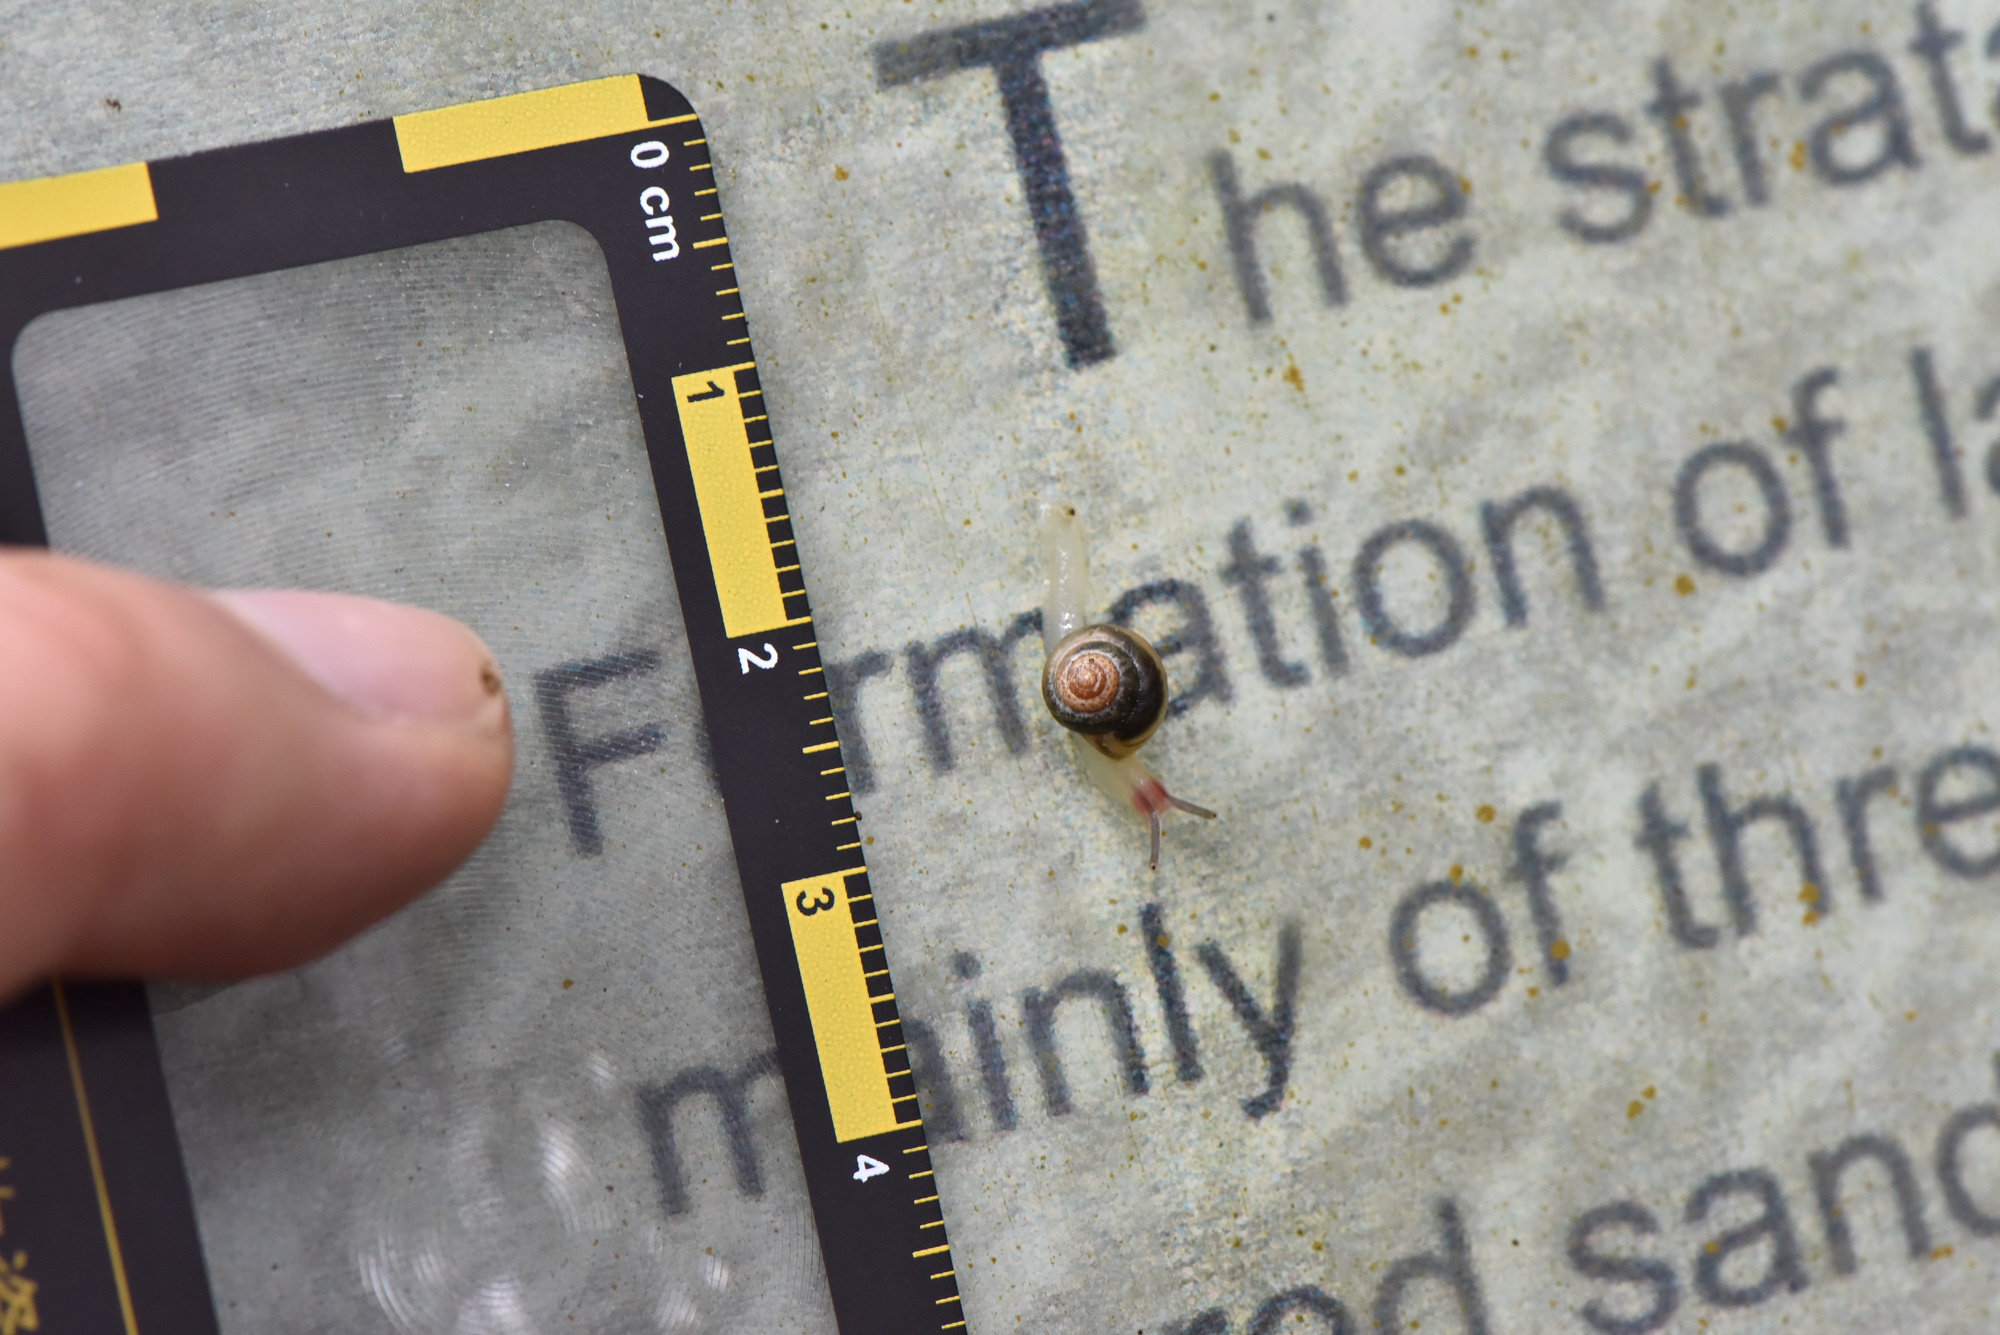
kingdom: Animalia
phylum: Mollusca
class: Gastropoda
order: Stylommatophora
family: Euconulidae
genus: Coneuplecta
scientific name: Coneuplecta
